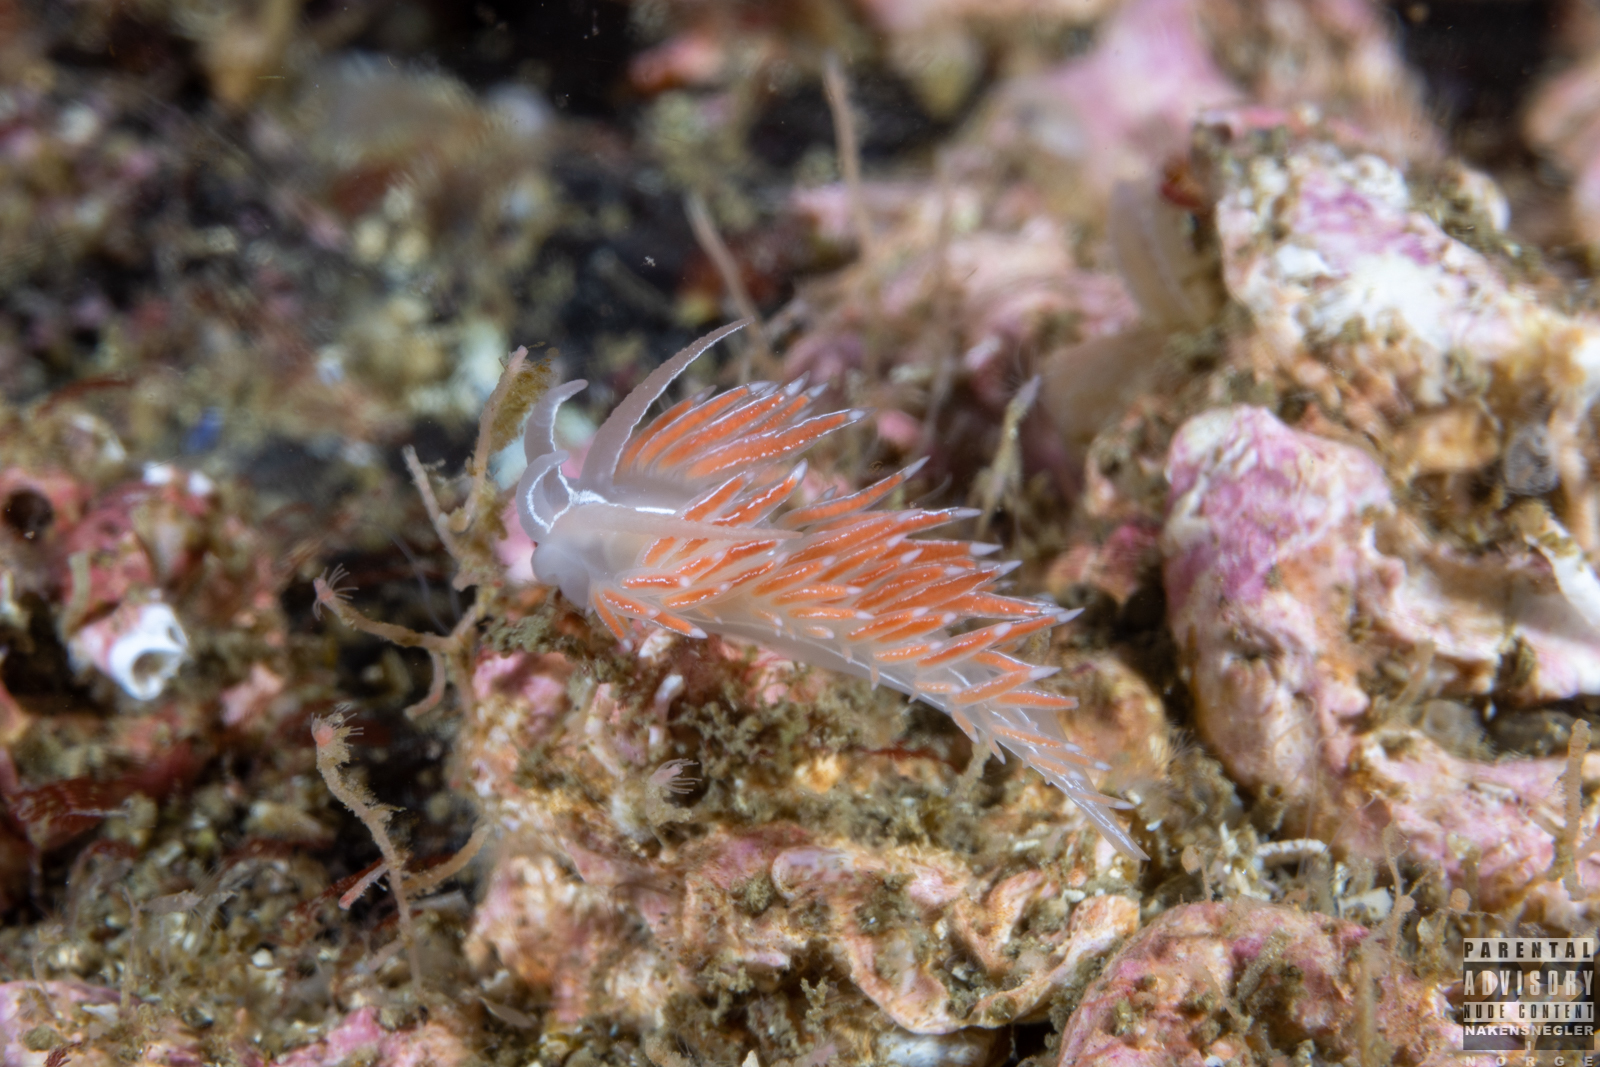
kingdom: Animalia
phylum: Mollusca
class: Gastropoda
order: Nudibranchia
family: Coryphellidae
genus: Coryphella
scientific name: Coryphella chriskaugei
